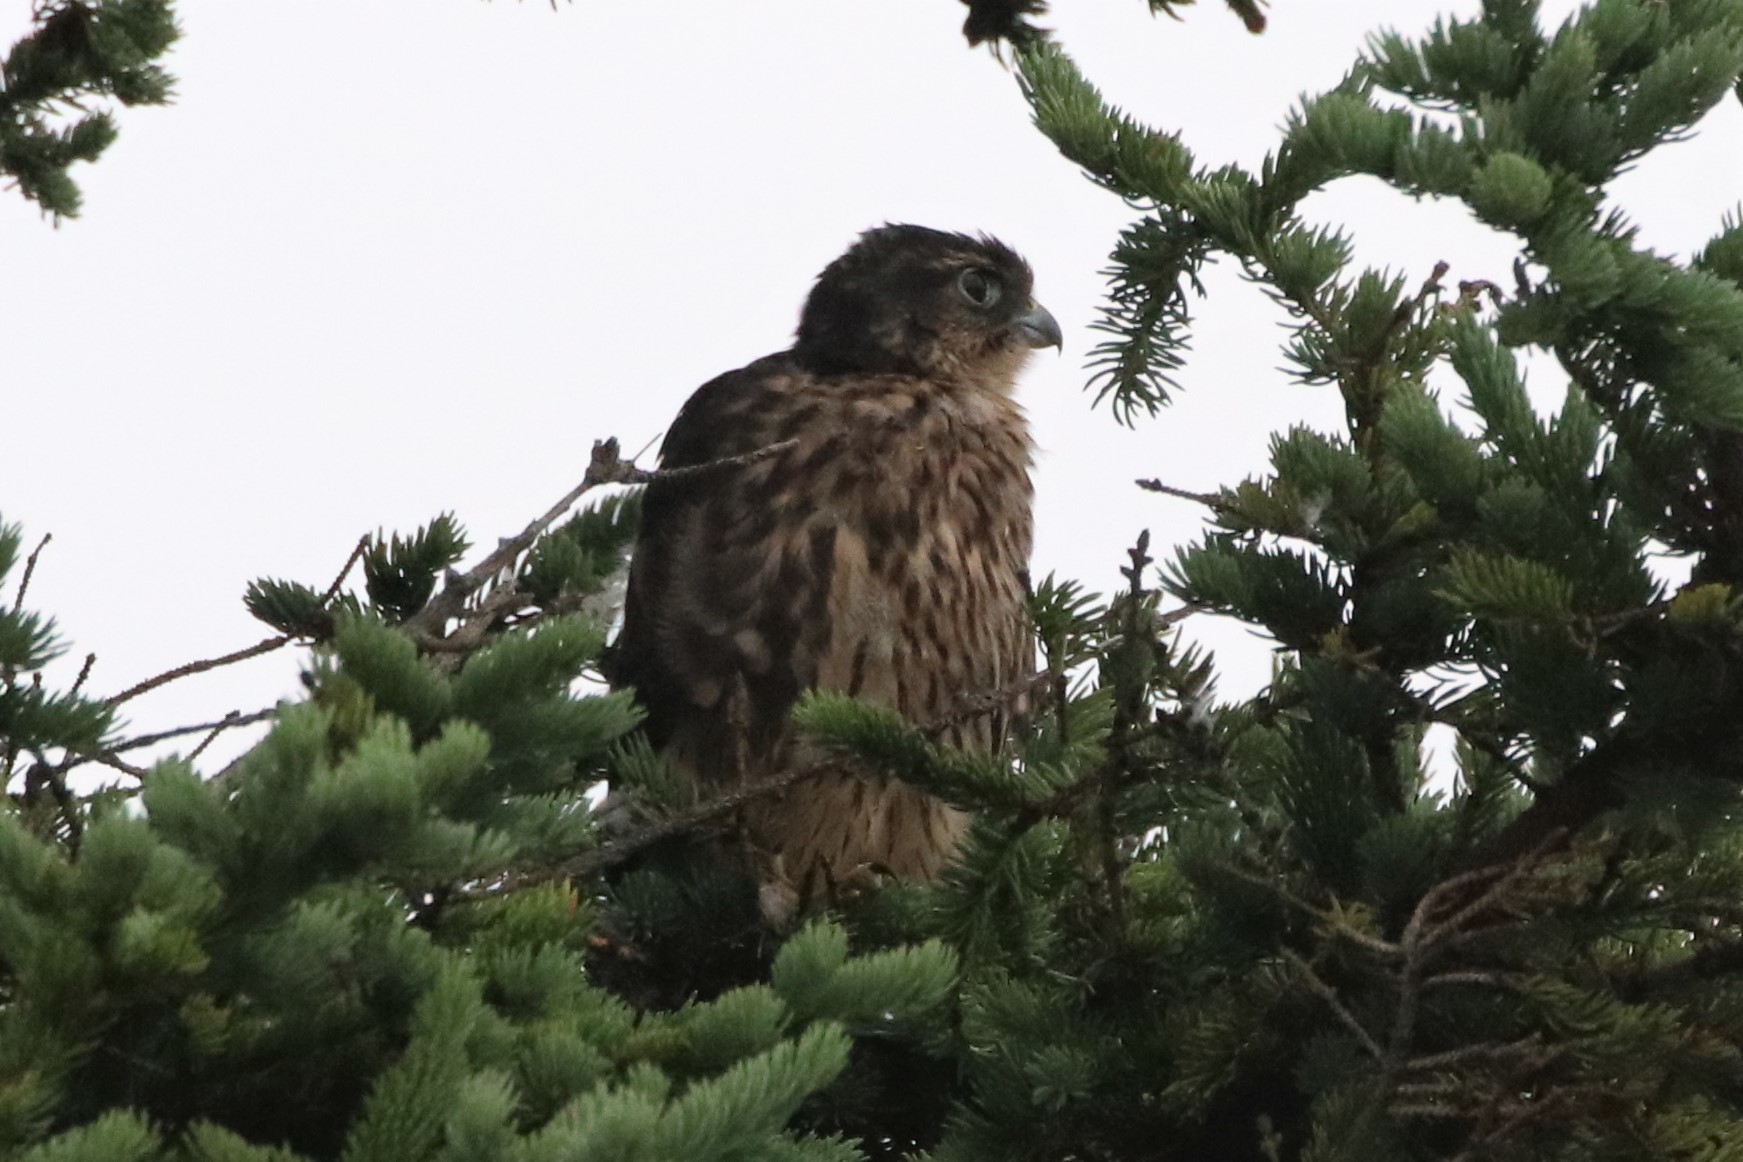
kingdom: Animalia
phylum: Chordata
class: Aves
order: Falconiformes
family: Falconidae
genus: Falco
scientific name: Falco columbarius
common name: Merlin
